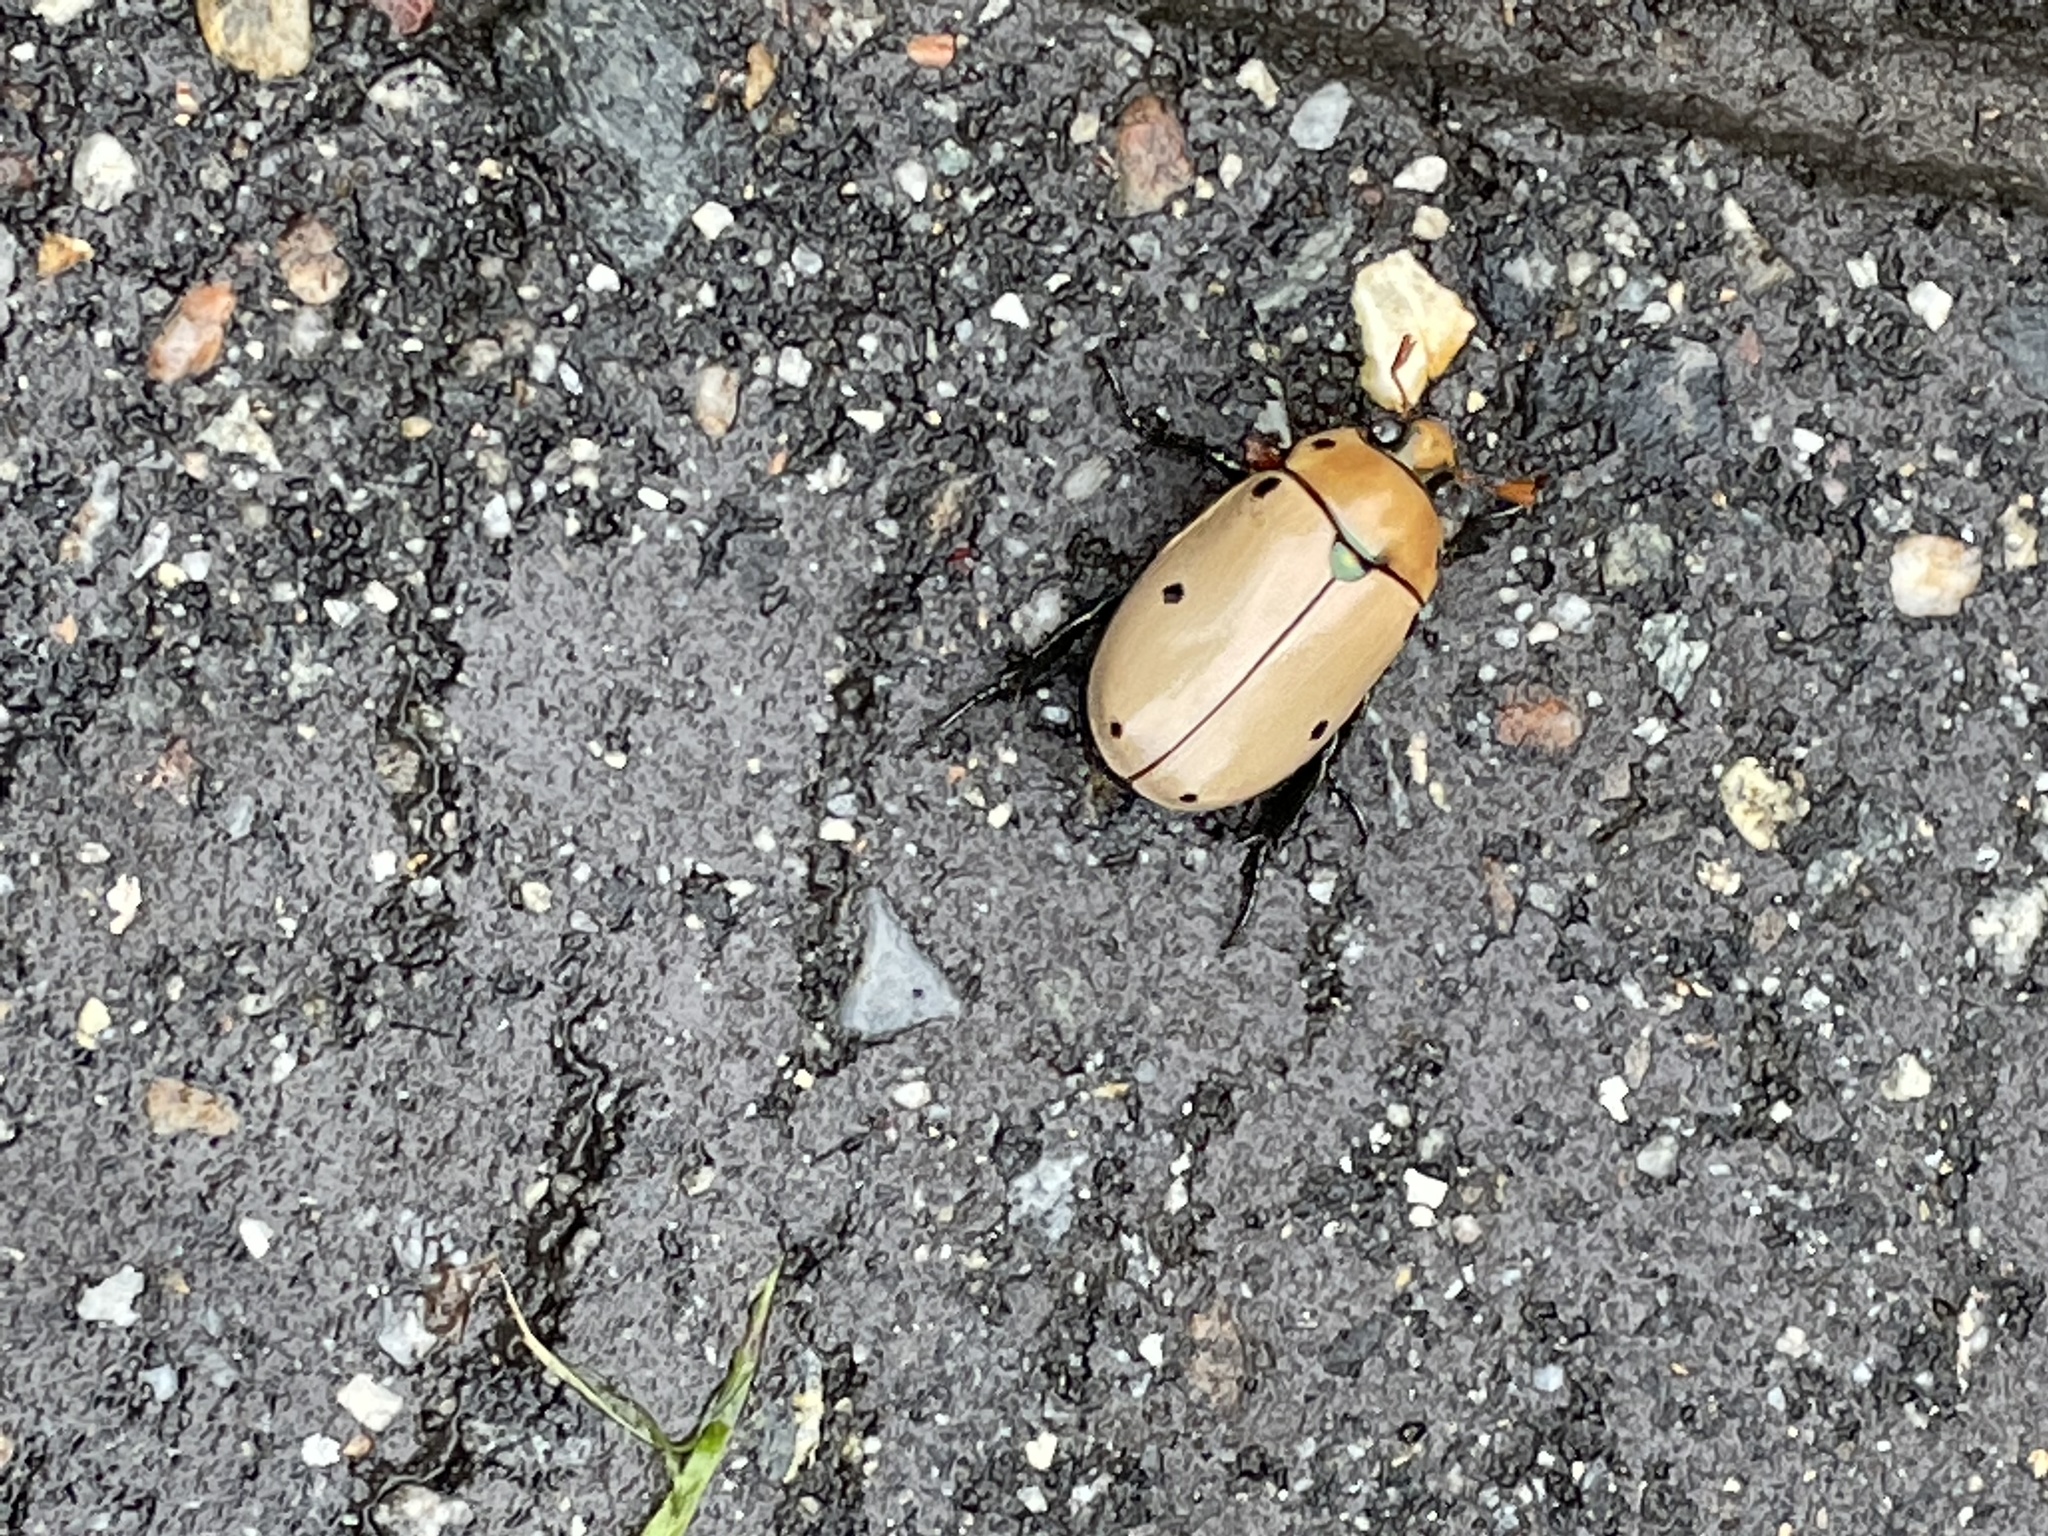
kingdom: Animalia
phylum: Arthropoda
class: Insecta
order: Coleoptera
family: Scarabaeidae
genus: Pelidnota
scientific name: Pelidnota punctata
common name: Grapevine beetle
